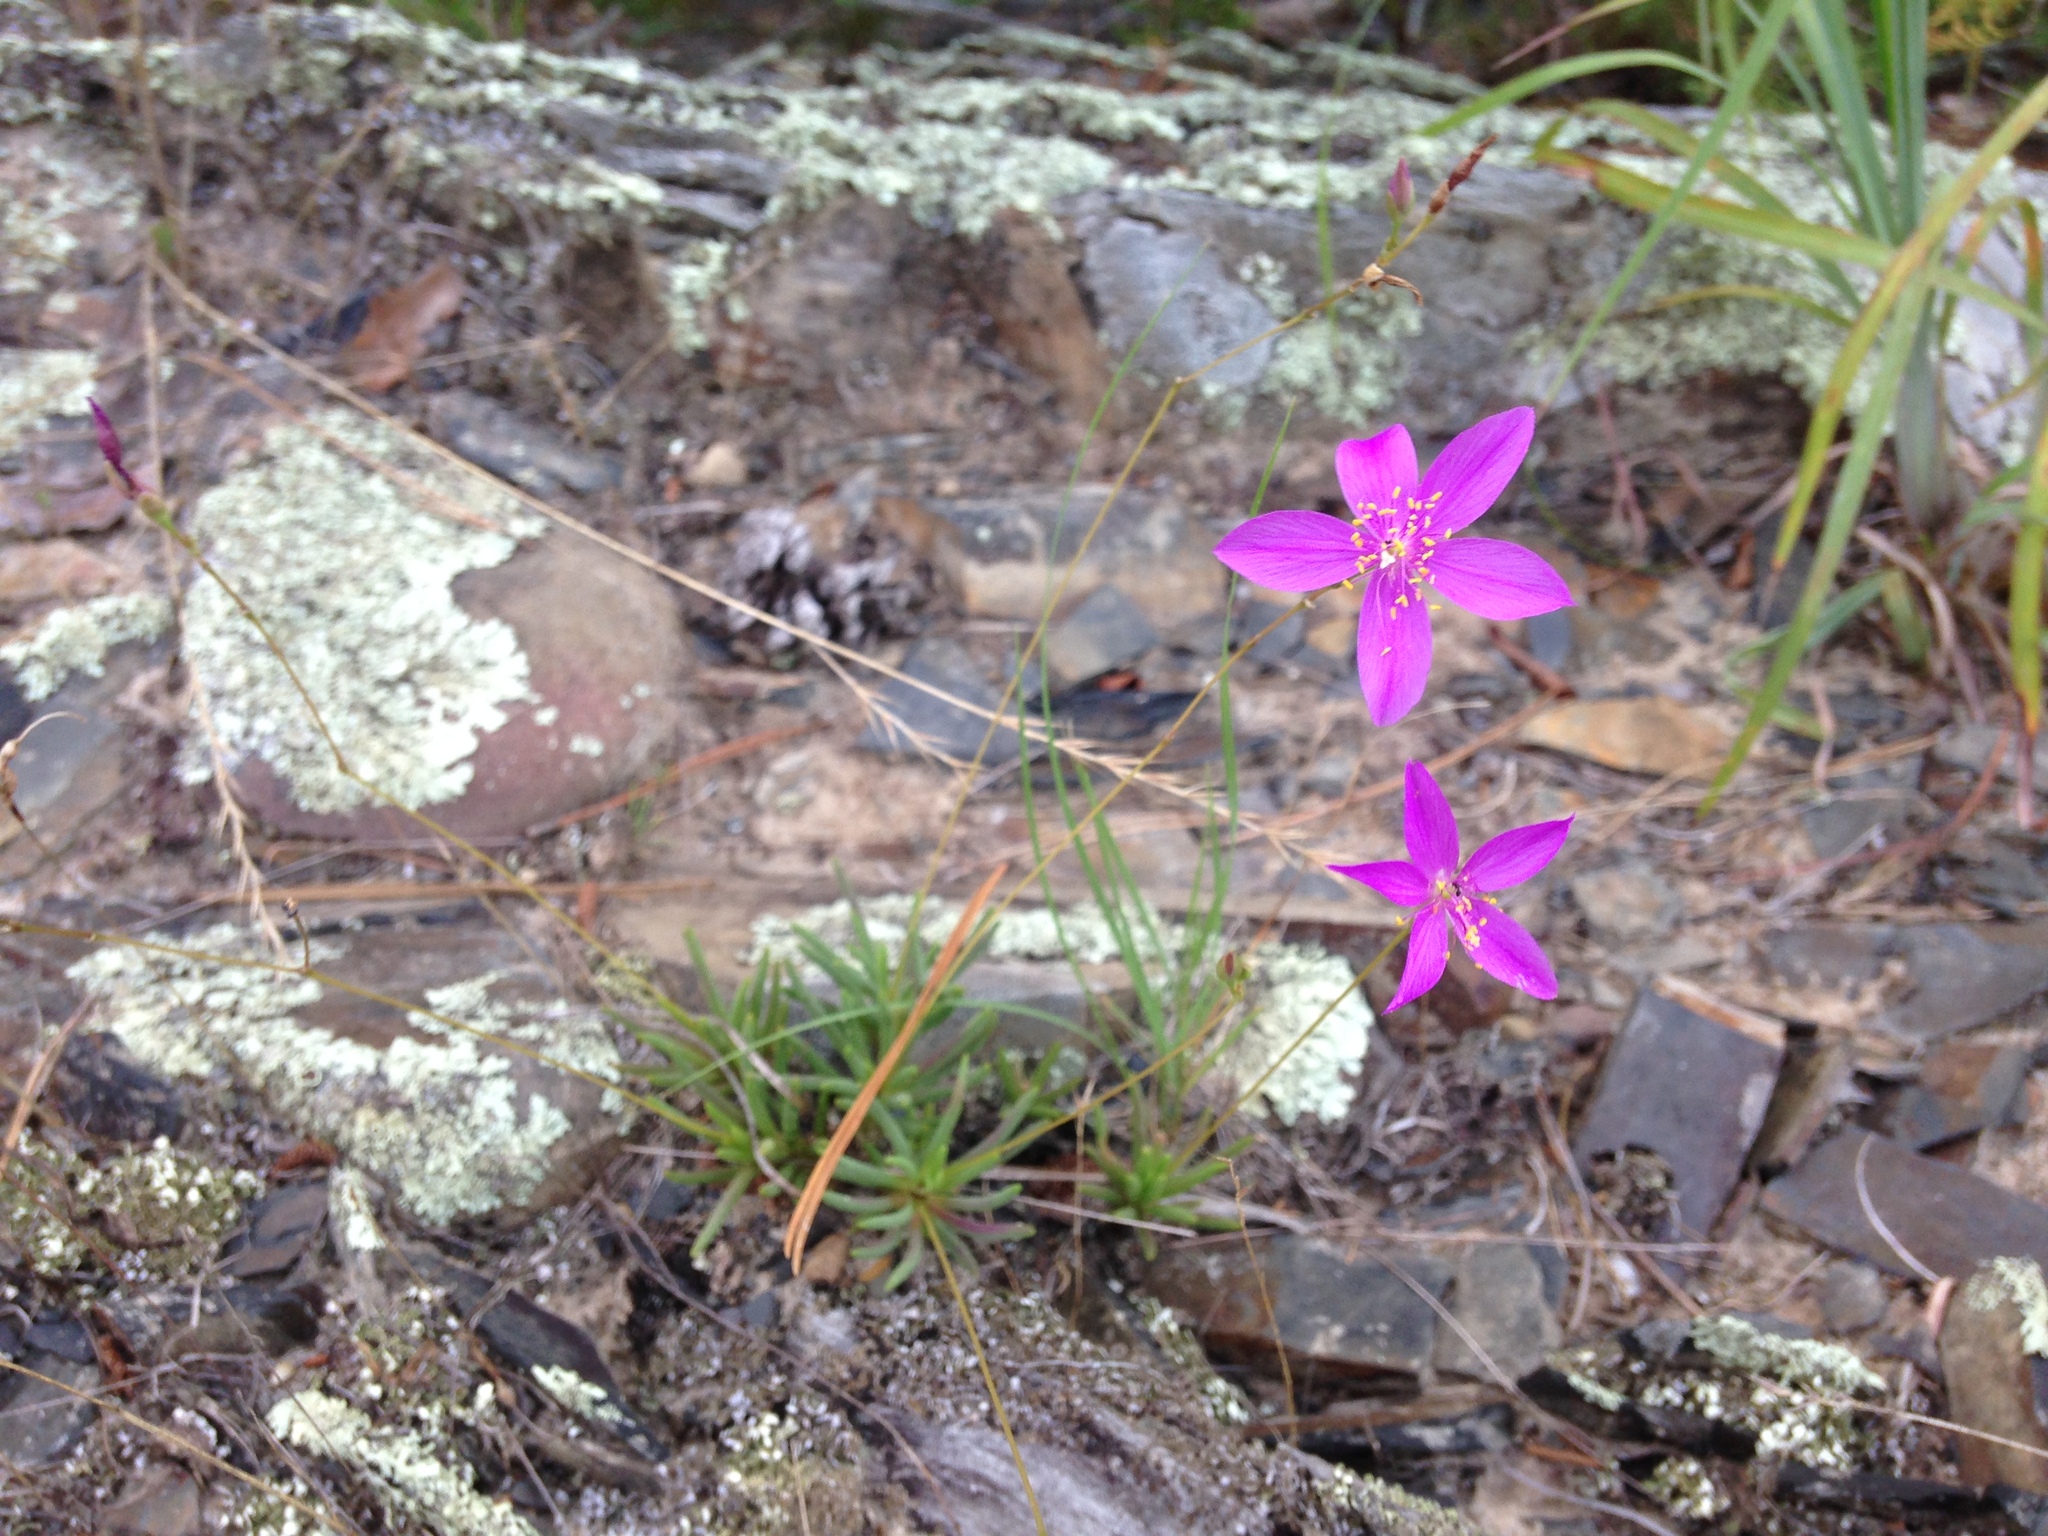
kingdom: Plantae
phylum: Tracheophyta
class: Magnoliopsida
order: Caryophyllales
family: Montiaceae
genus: Phemeranthus
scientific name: Phemeranthus calycinus
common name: Largeflower fameflower
